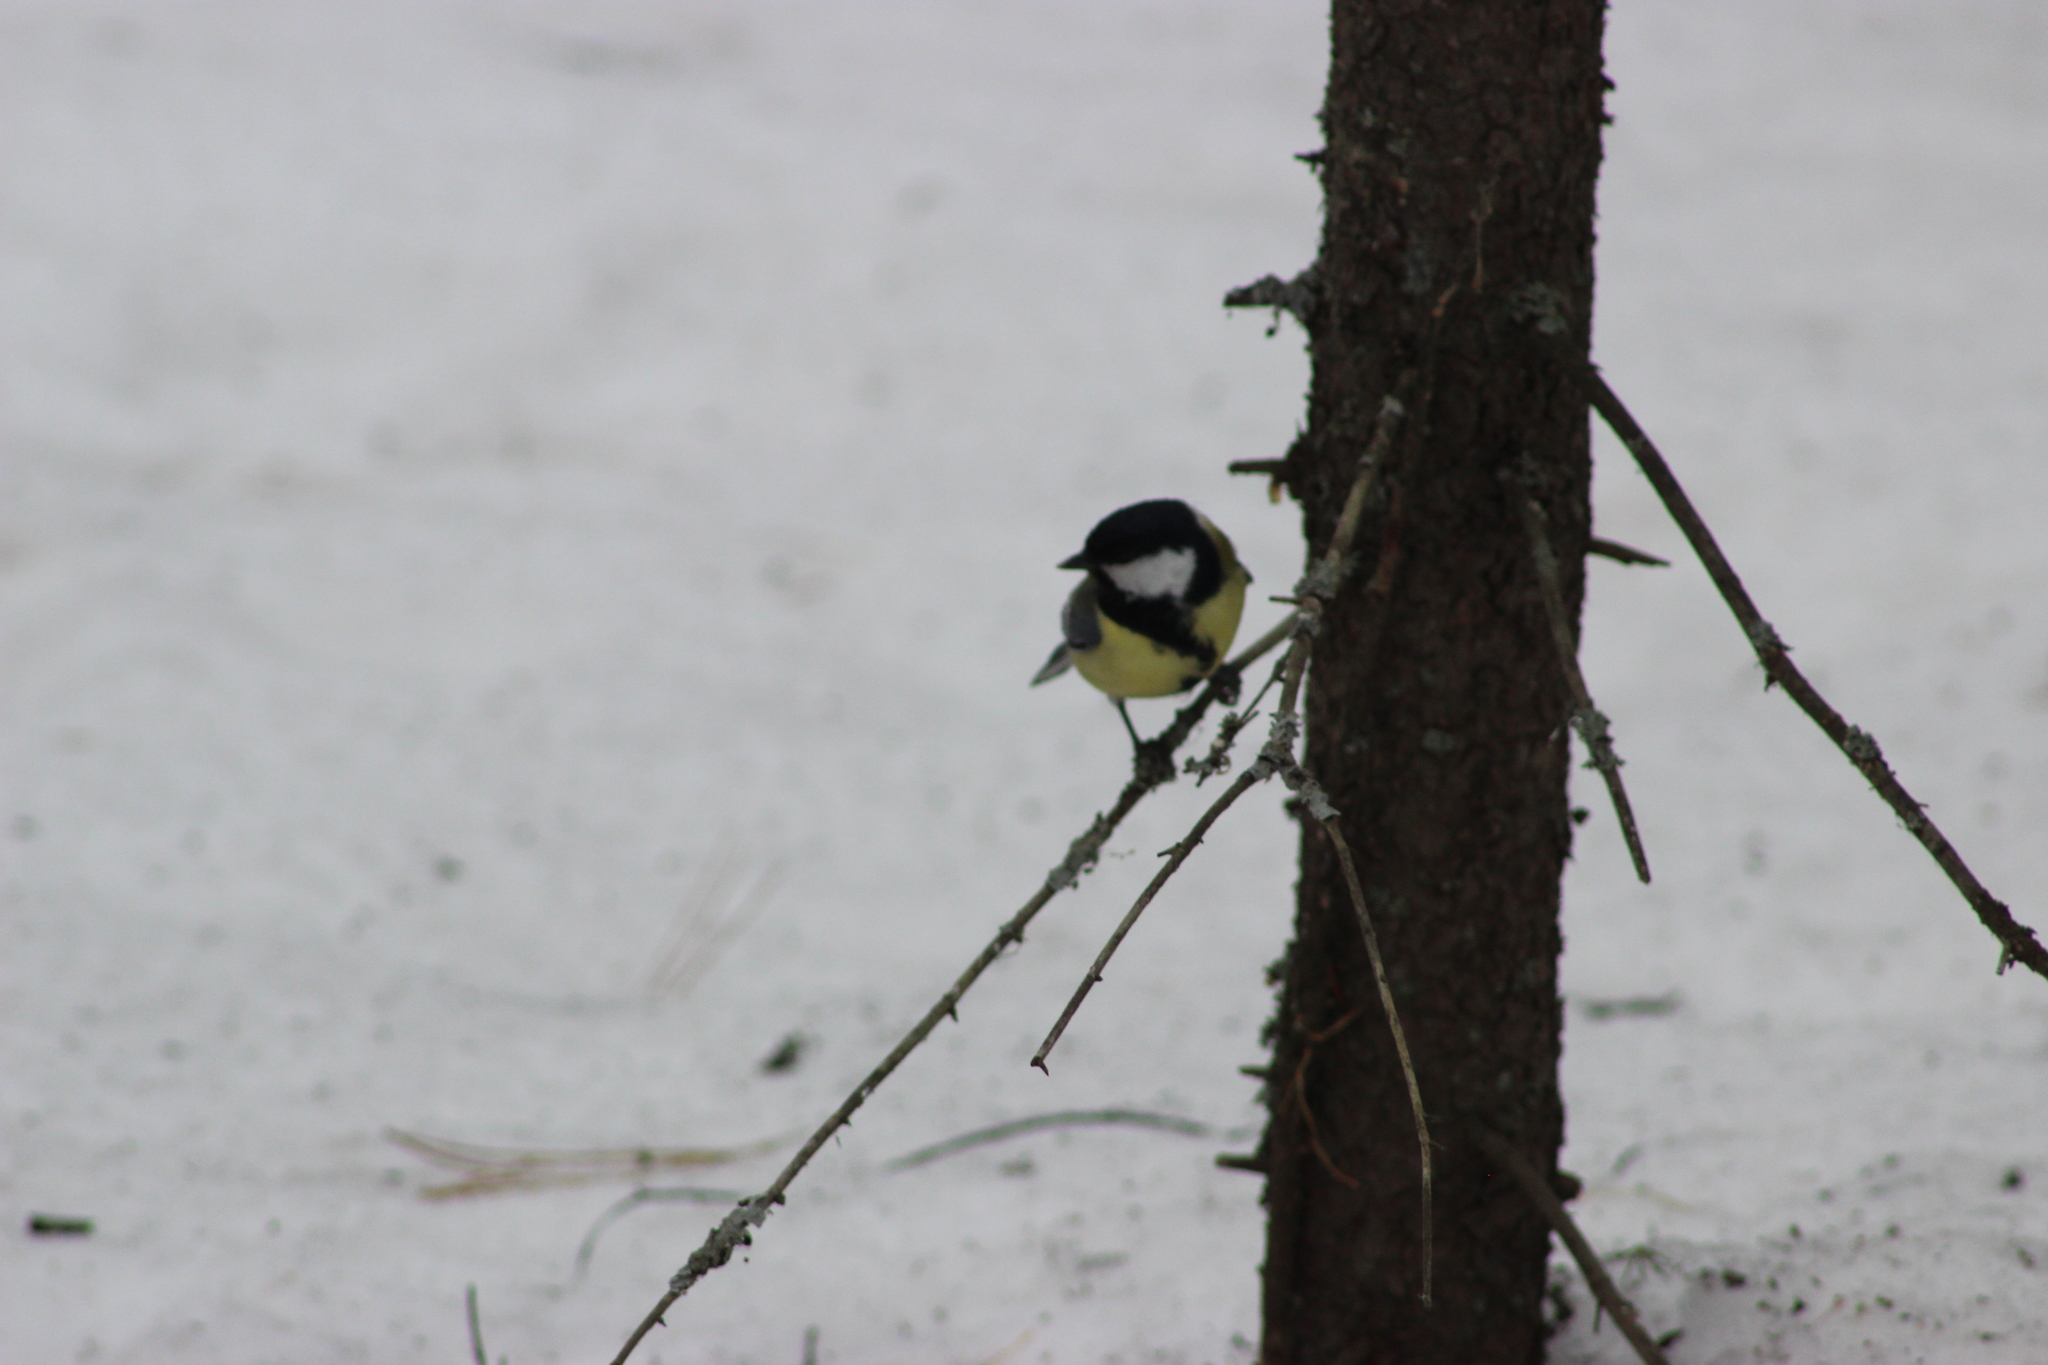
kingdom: Animalia
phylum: Chordata
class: Aves
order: Passeriformes
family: Paridae
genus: Parus
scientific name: Parus major
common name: Great tit
